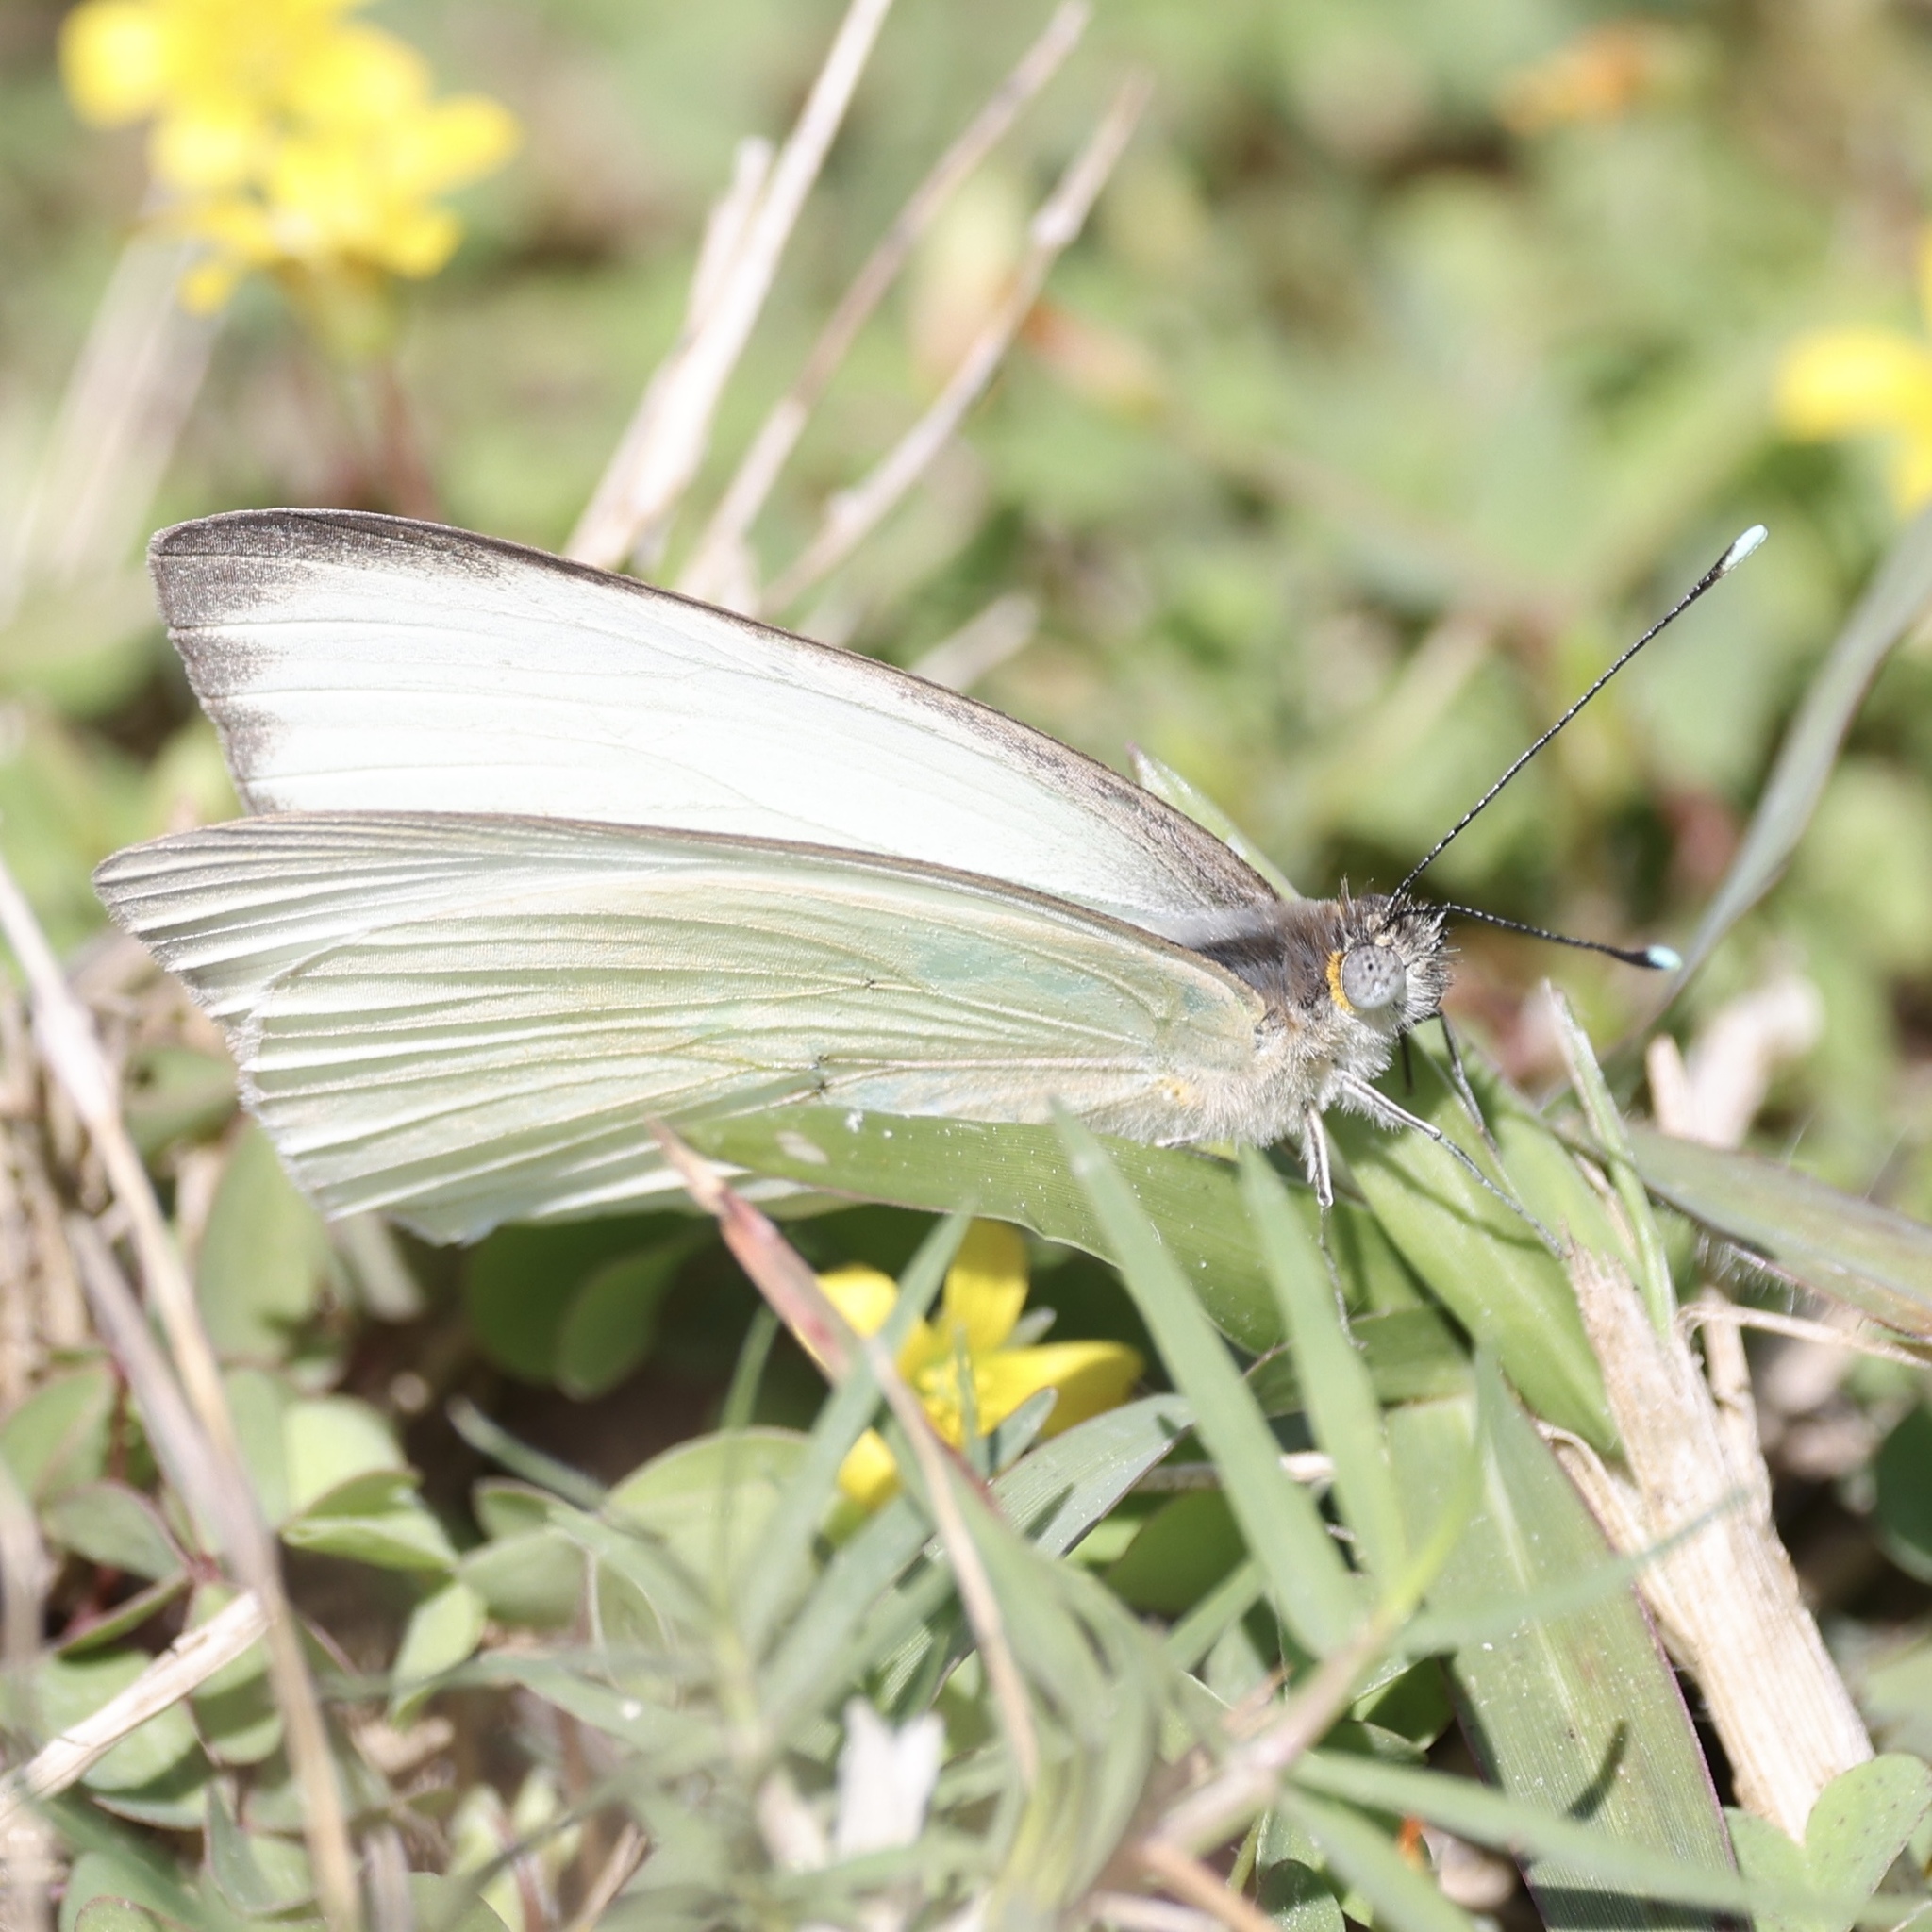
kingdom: Animalia
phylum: Arthropoda
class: Insecta
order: Lepidoptera
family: Pieridae
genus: Ascia
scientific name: Ascia monuste
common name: Great southern white
